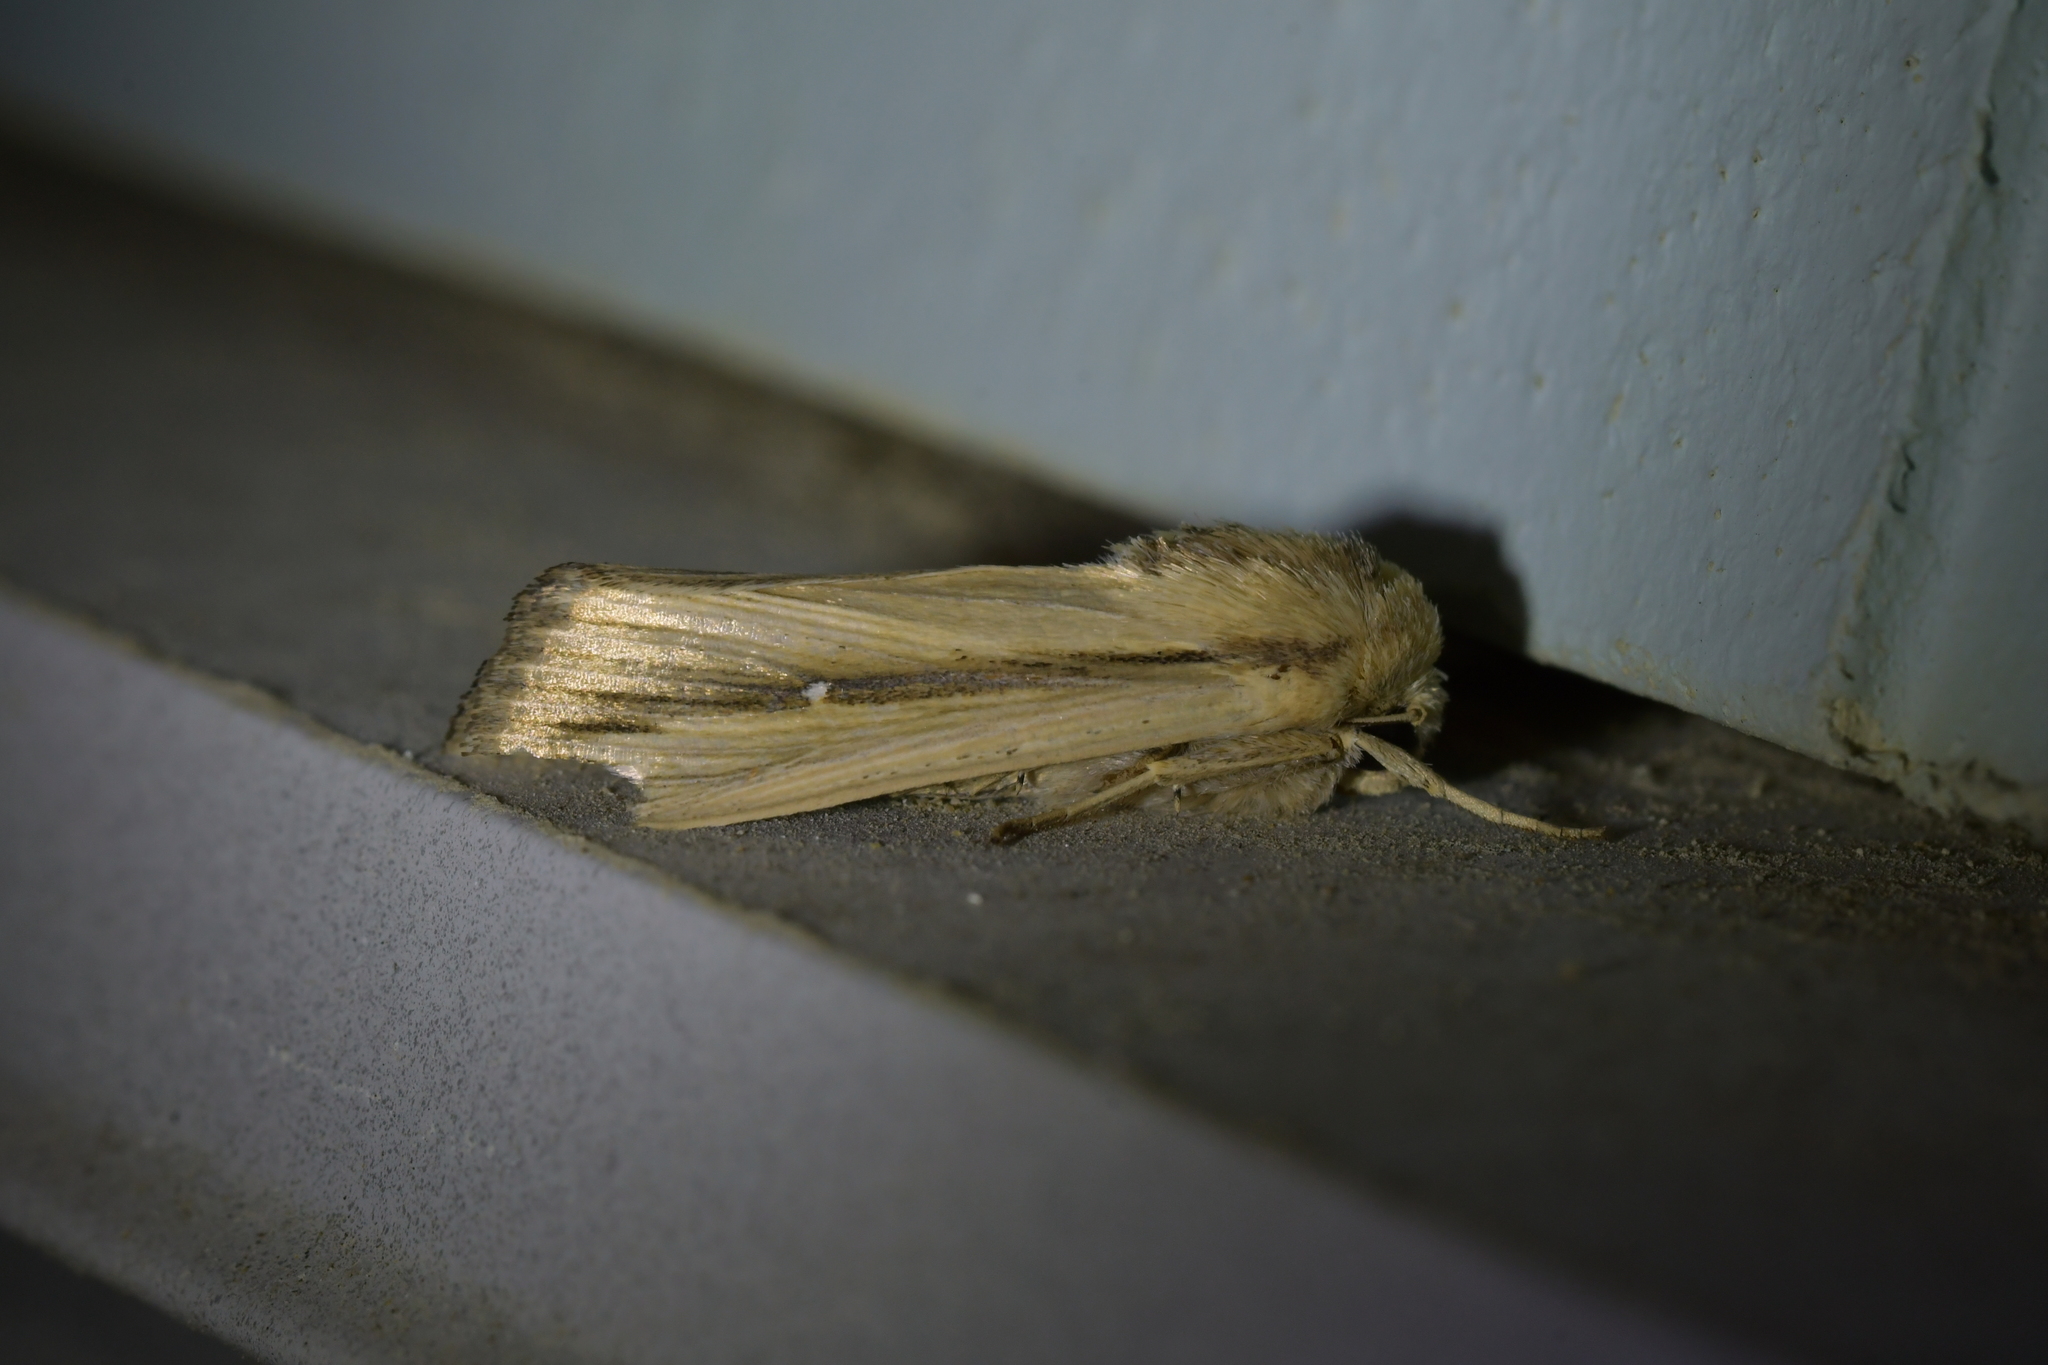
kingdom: Animalia
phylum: Arthropoda
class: Insecta
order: Lepidoptera
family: Noctuidae
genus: Leucania
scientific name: Leucania stenographa
